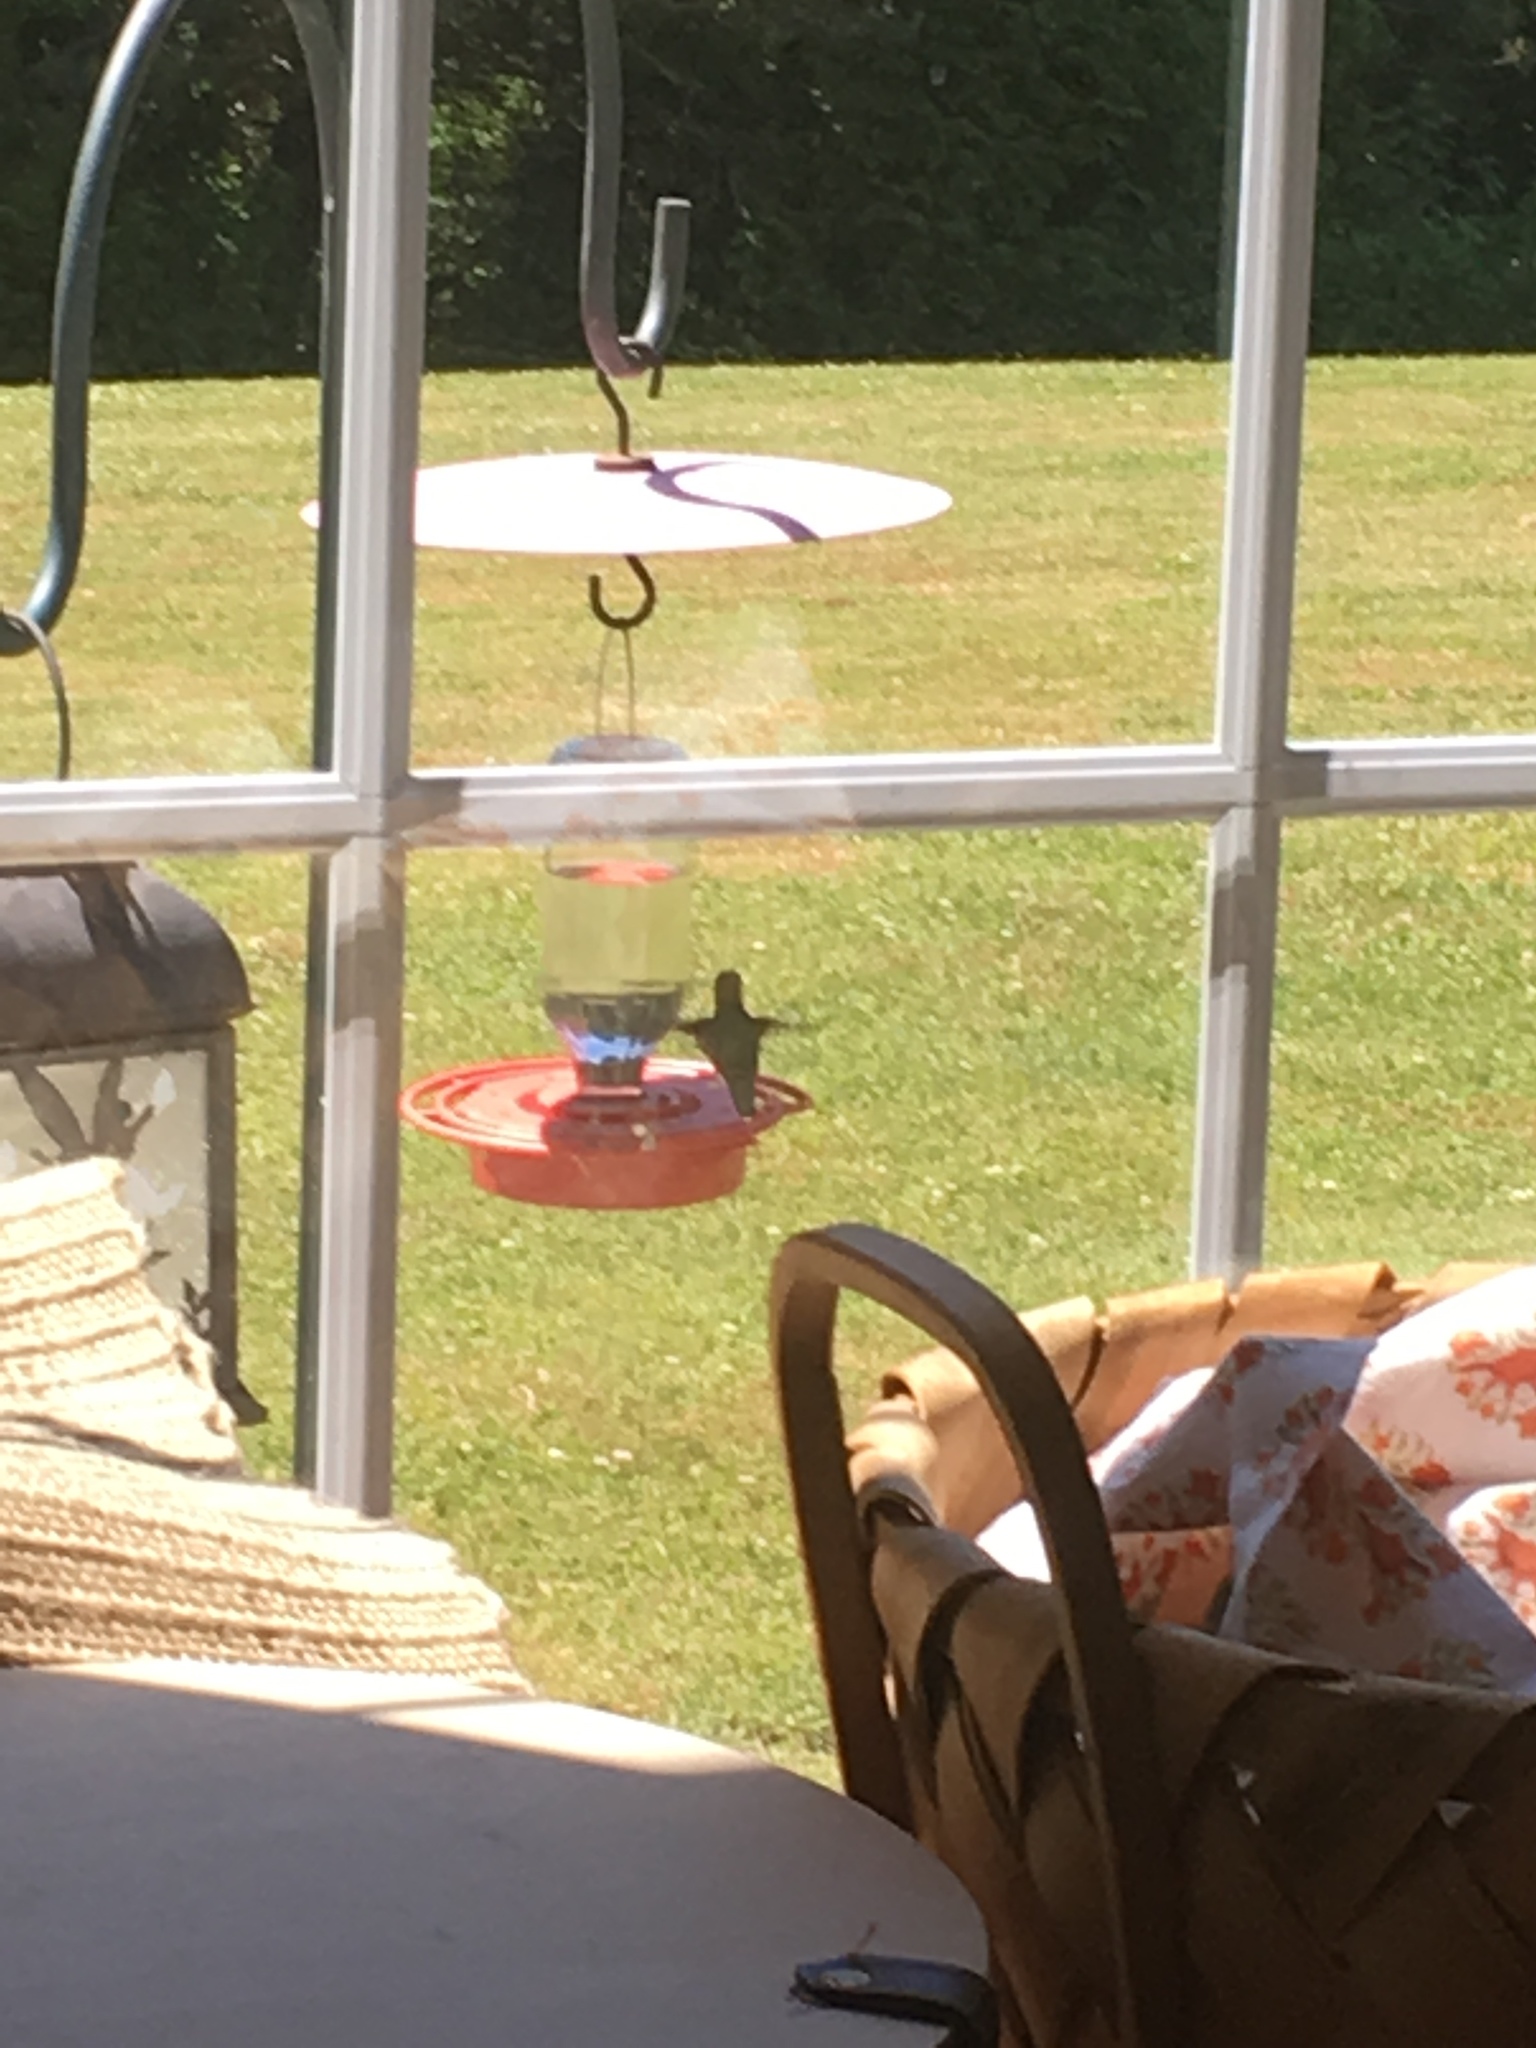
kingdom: Animalia
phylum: Chordata
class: Aves
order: Apodiformes
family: Trochilidae
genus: Archilochus
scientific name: Archilochus colubris
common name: Ruby-throated hummingbird
